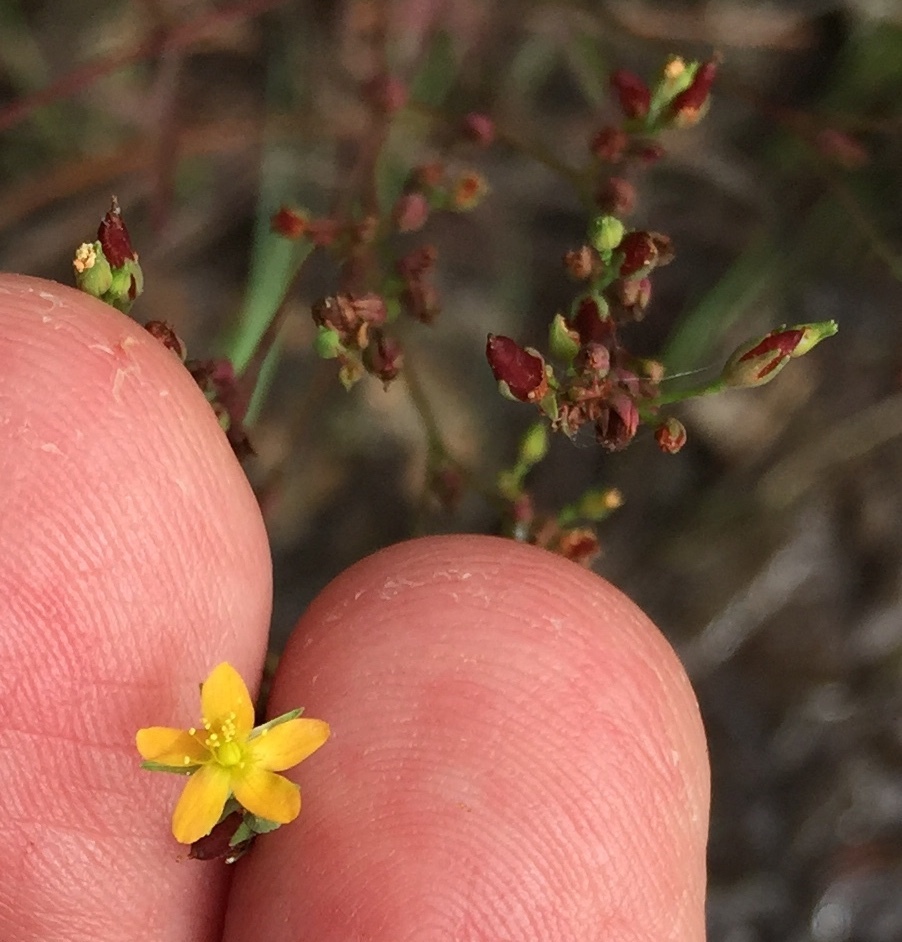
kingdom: Plantae
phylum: Tracheophyta
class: Magnoliopsida
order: Malpighiales
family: Hypericaceae
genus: Hypericum
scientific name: Hypericum canadense
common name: Irish st. john's-wort
